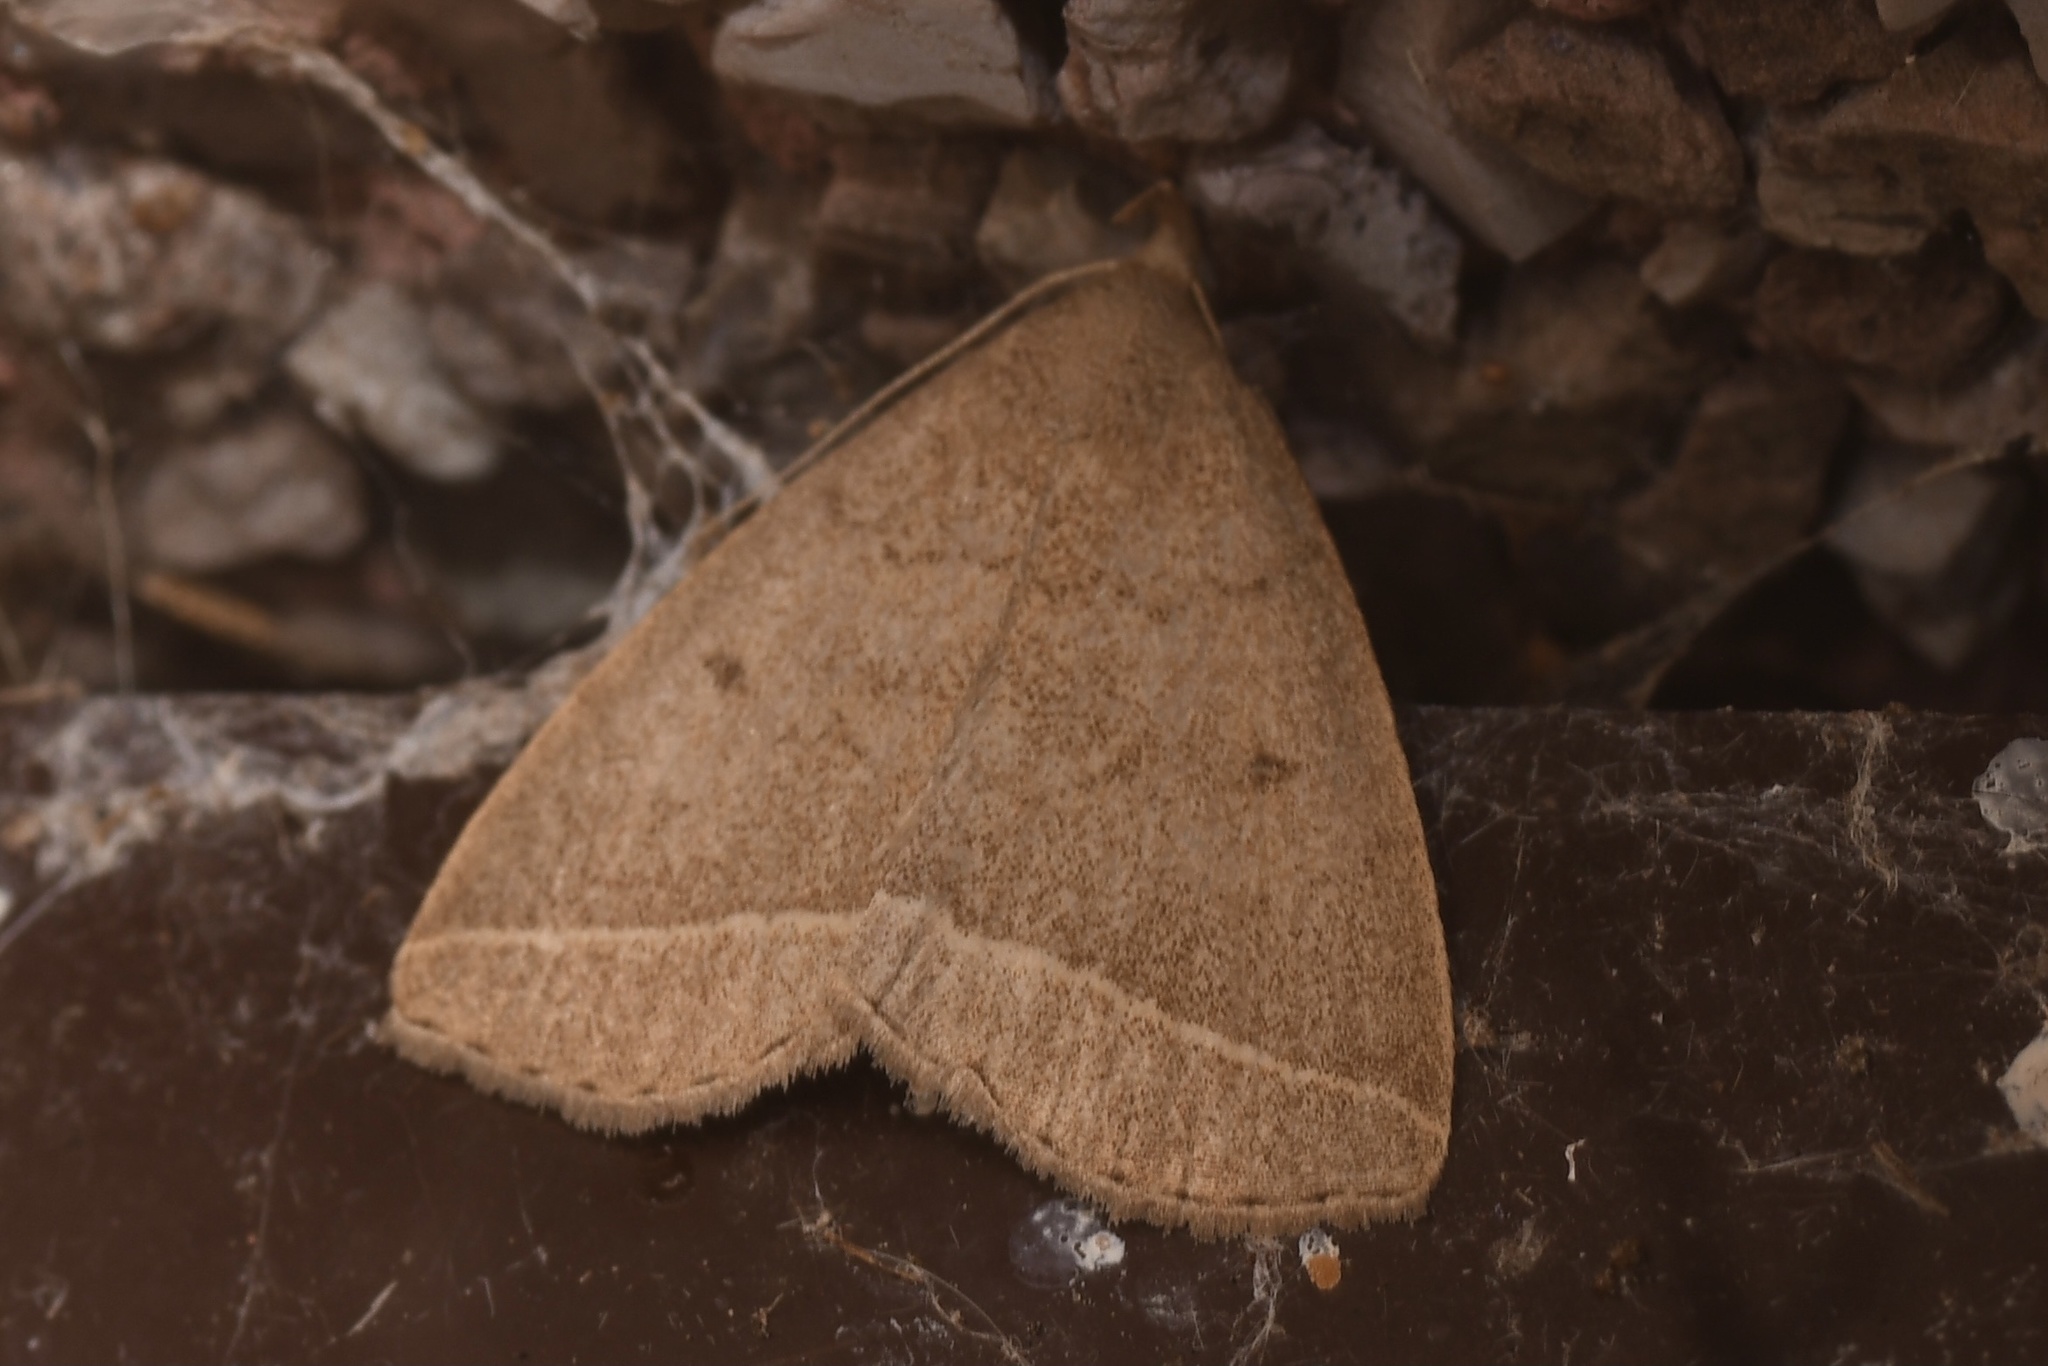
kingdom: Animalia
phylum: Arthropoda
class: Insecta
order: Lepidoptera
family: Erebidae
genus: Zanclognatha
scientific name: Zanclognatha marcidilinea
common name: Yellowish fan-foot
